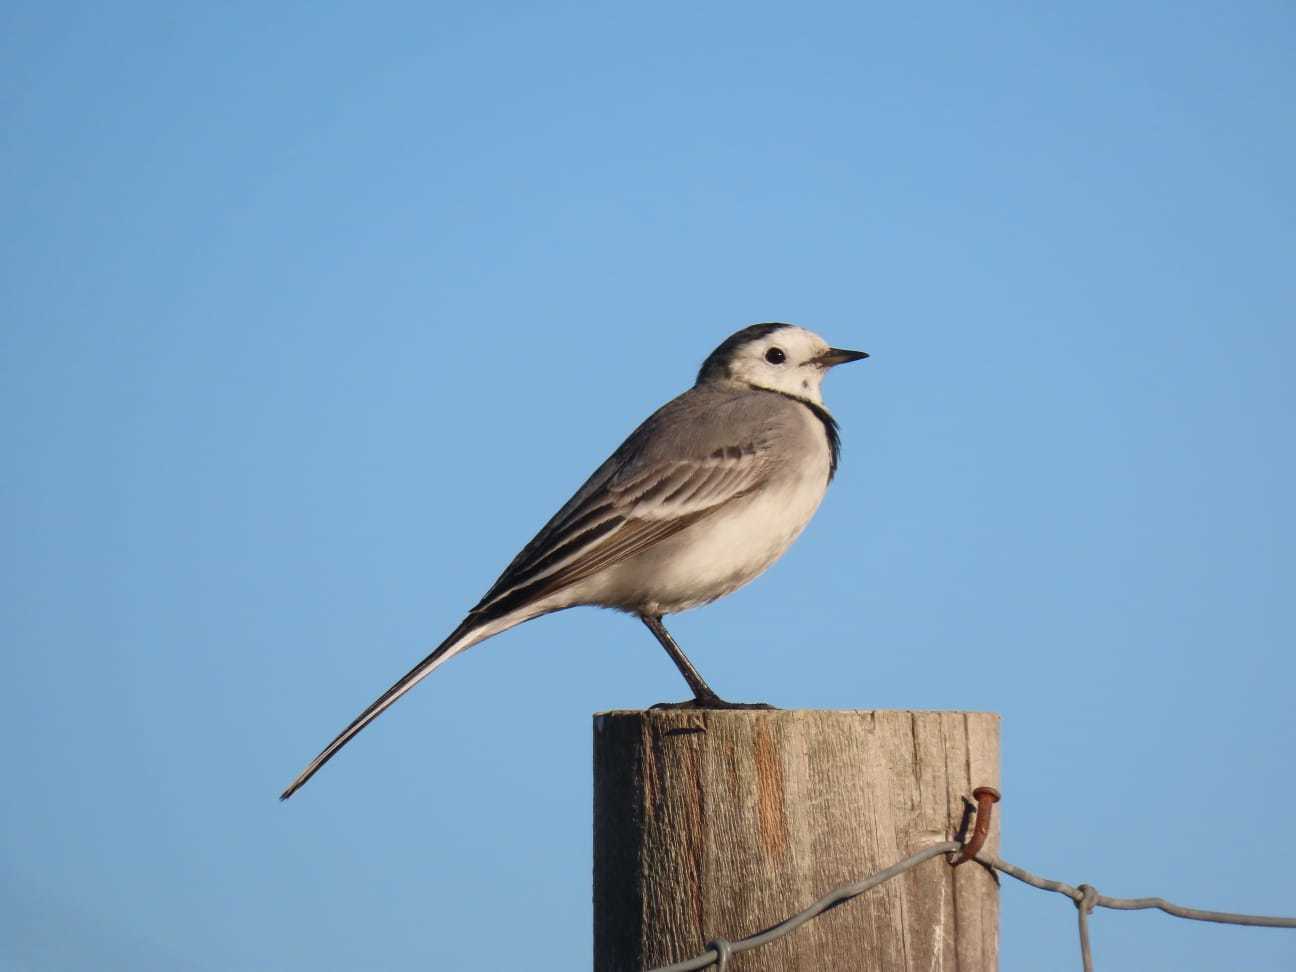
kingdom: Animalia
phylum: Chordata
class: Aves
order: Passeriformes
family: Motacillidae
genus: Motacilla
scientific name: Motacilla alba
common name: White wagtail
